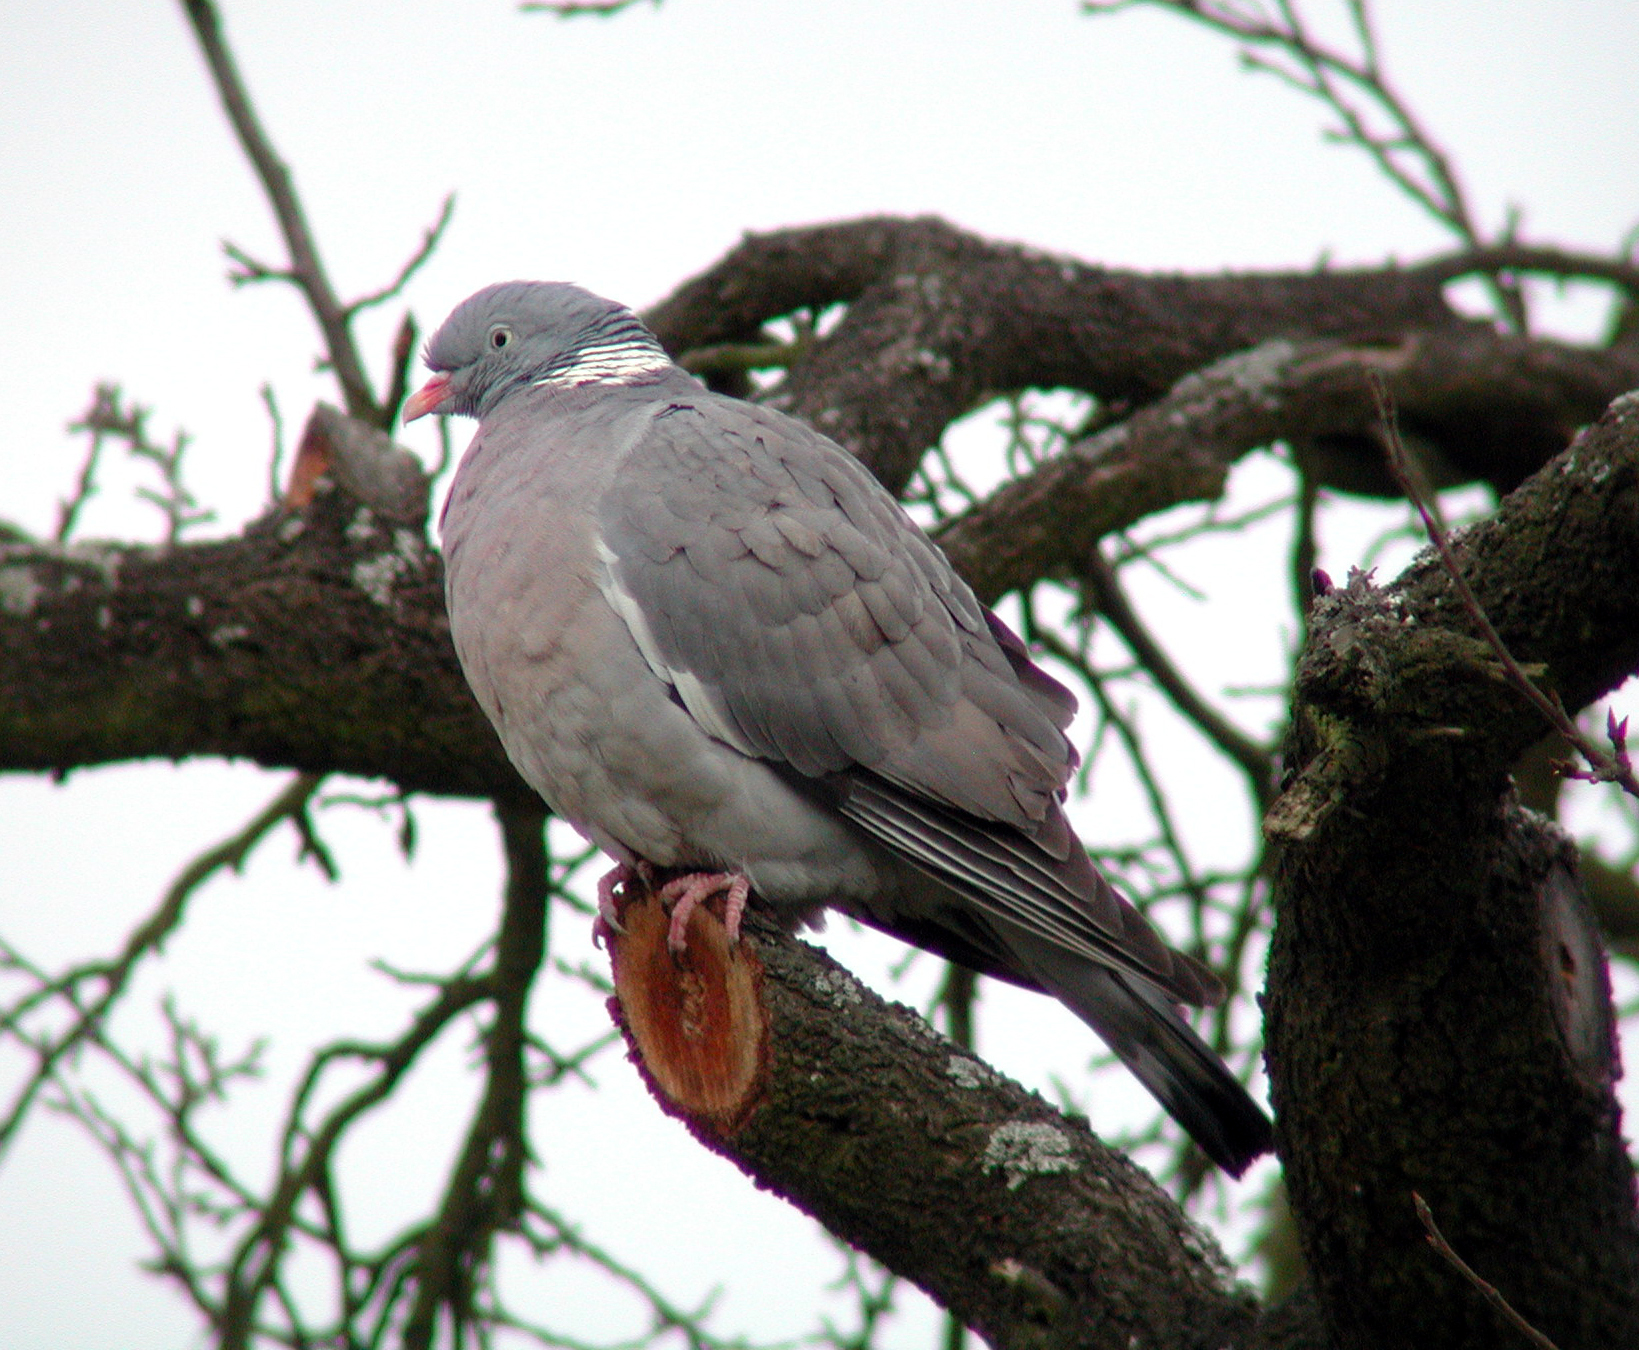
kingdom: Animalia
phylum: Chordata
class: Aves
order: Columbiformes
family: Columbidae
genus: Columba
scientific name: Columba palumbus
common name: Common wood pigeon
